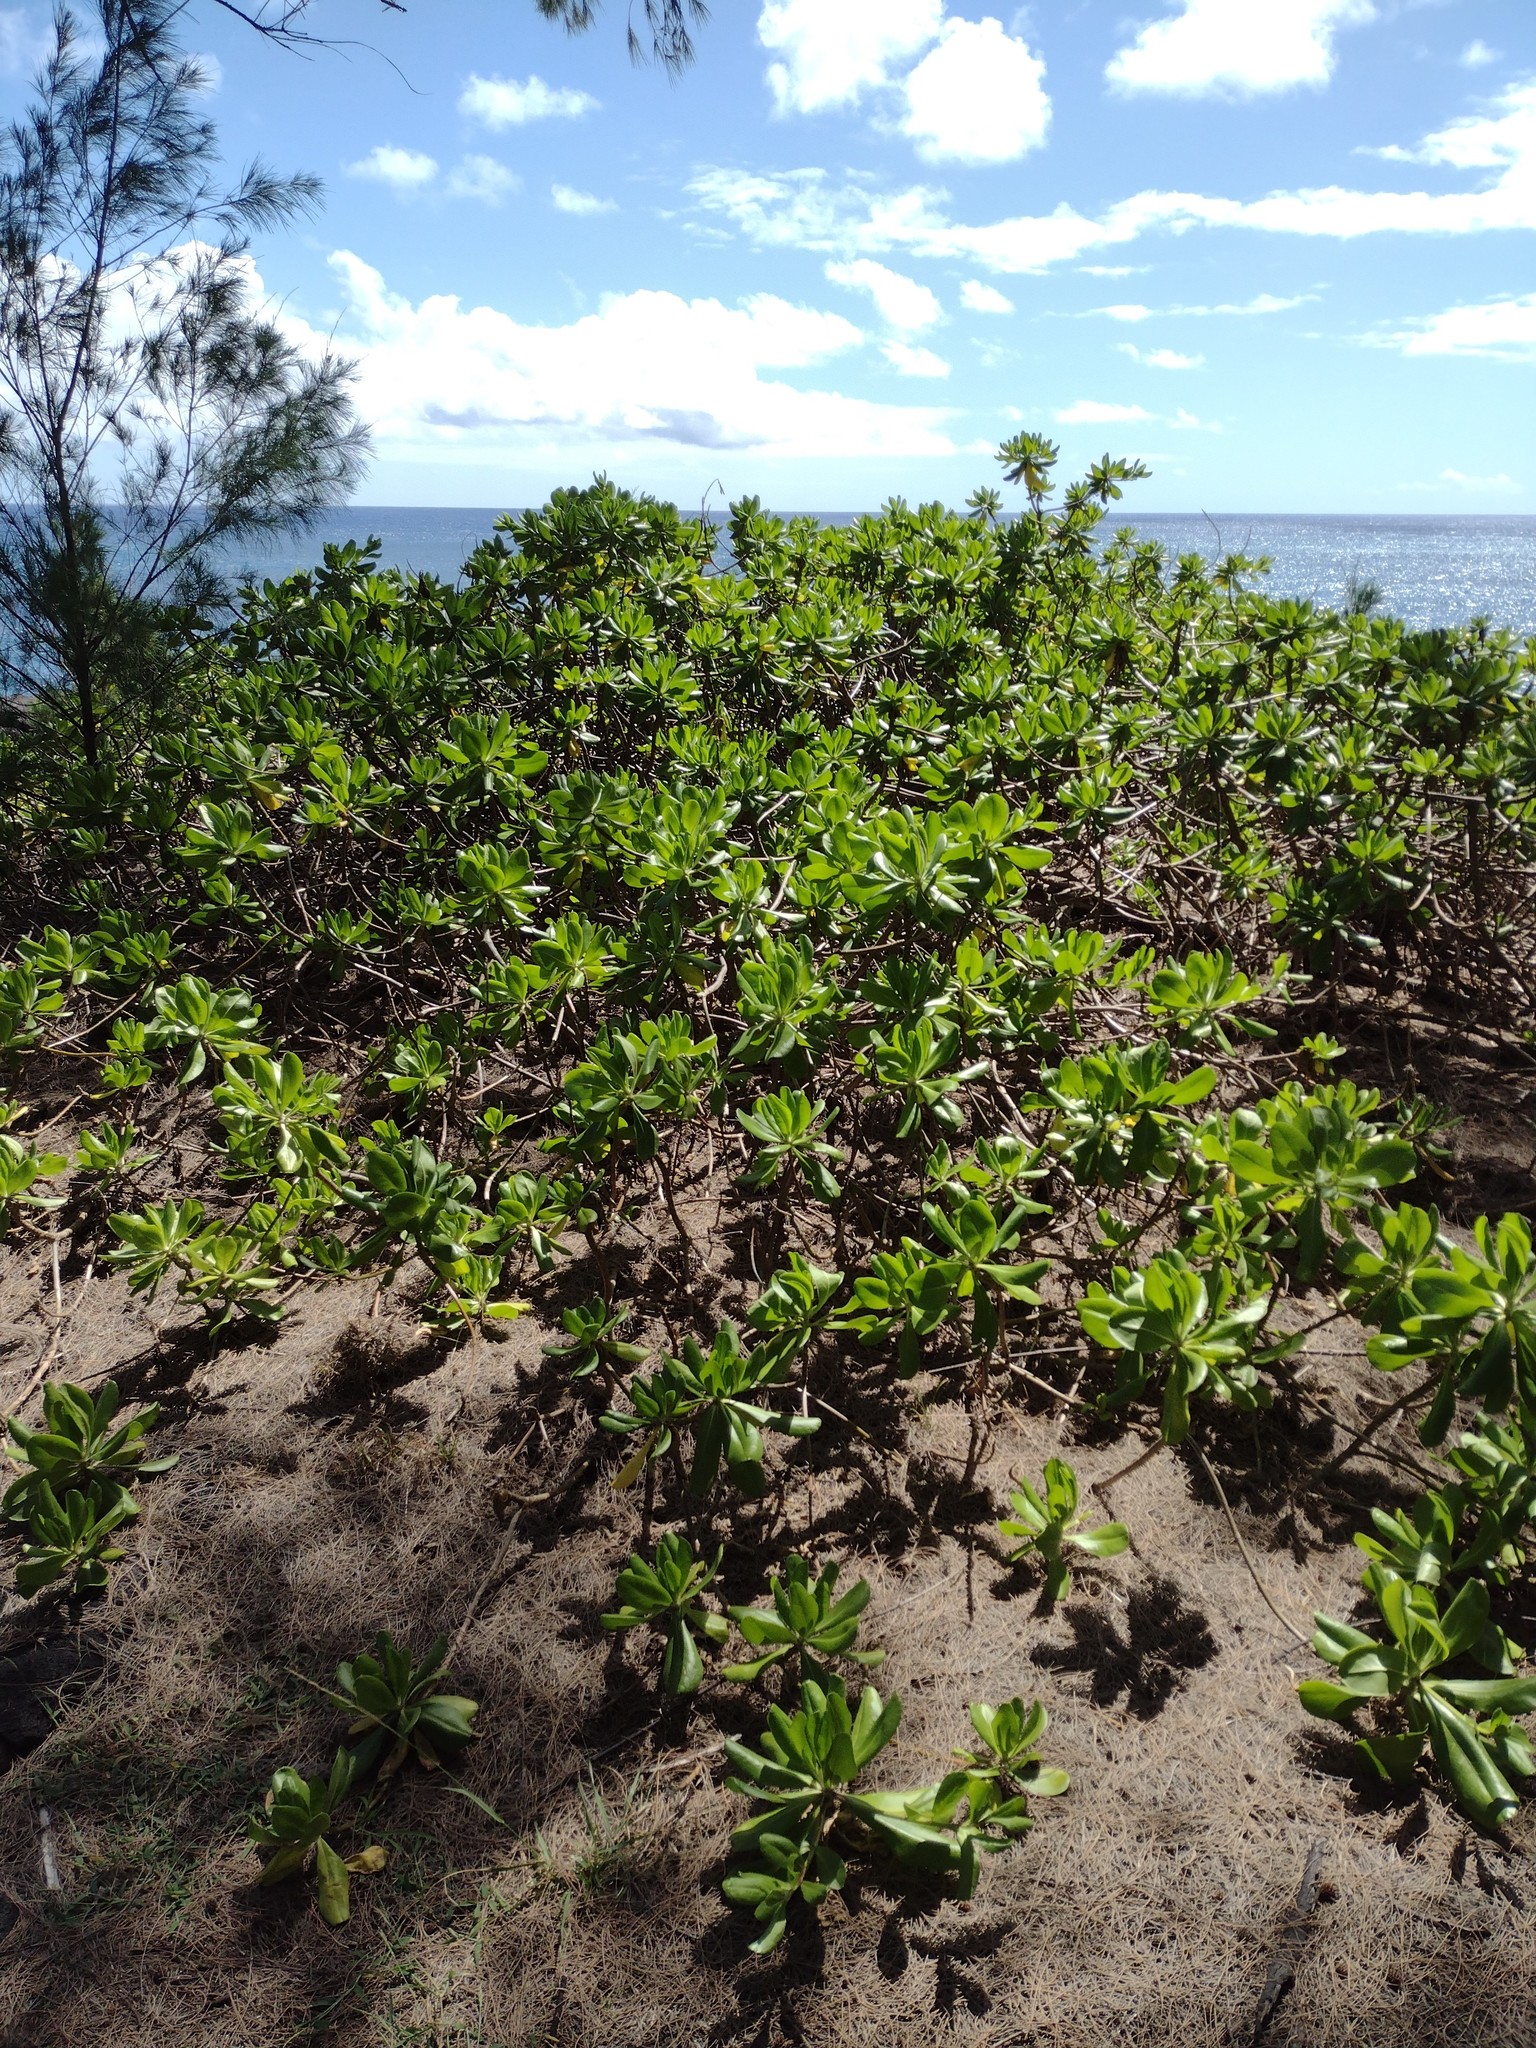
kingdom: Plantae
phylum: Tracheophyta
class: Magnoliopsida
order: Asterales
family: Goodeniaceae
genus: Scaevola
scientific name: Scaevola taccada
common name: Sea lettucetree
